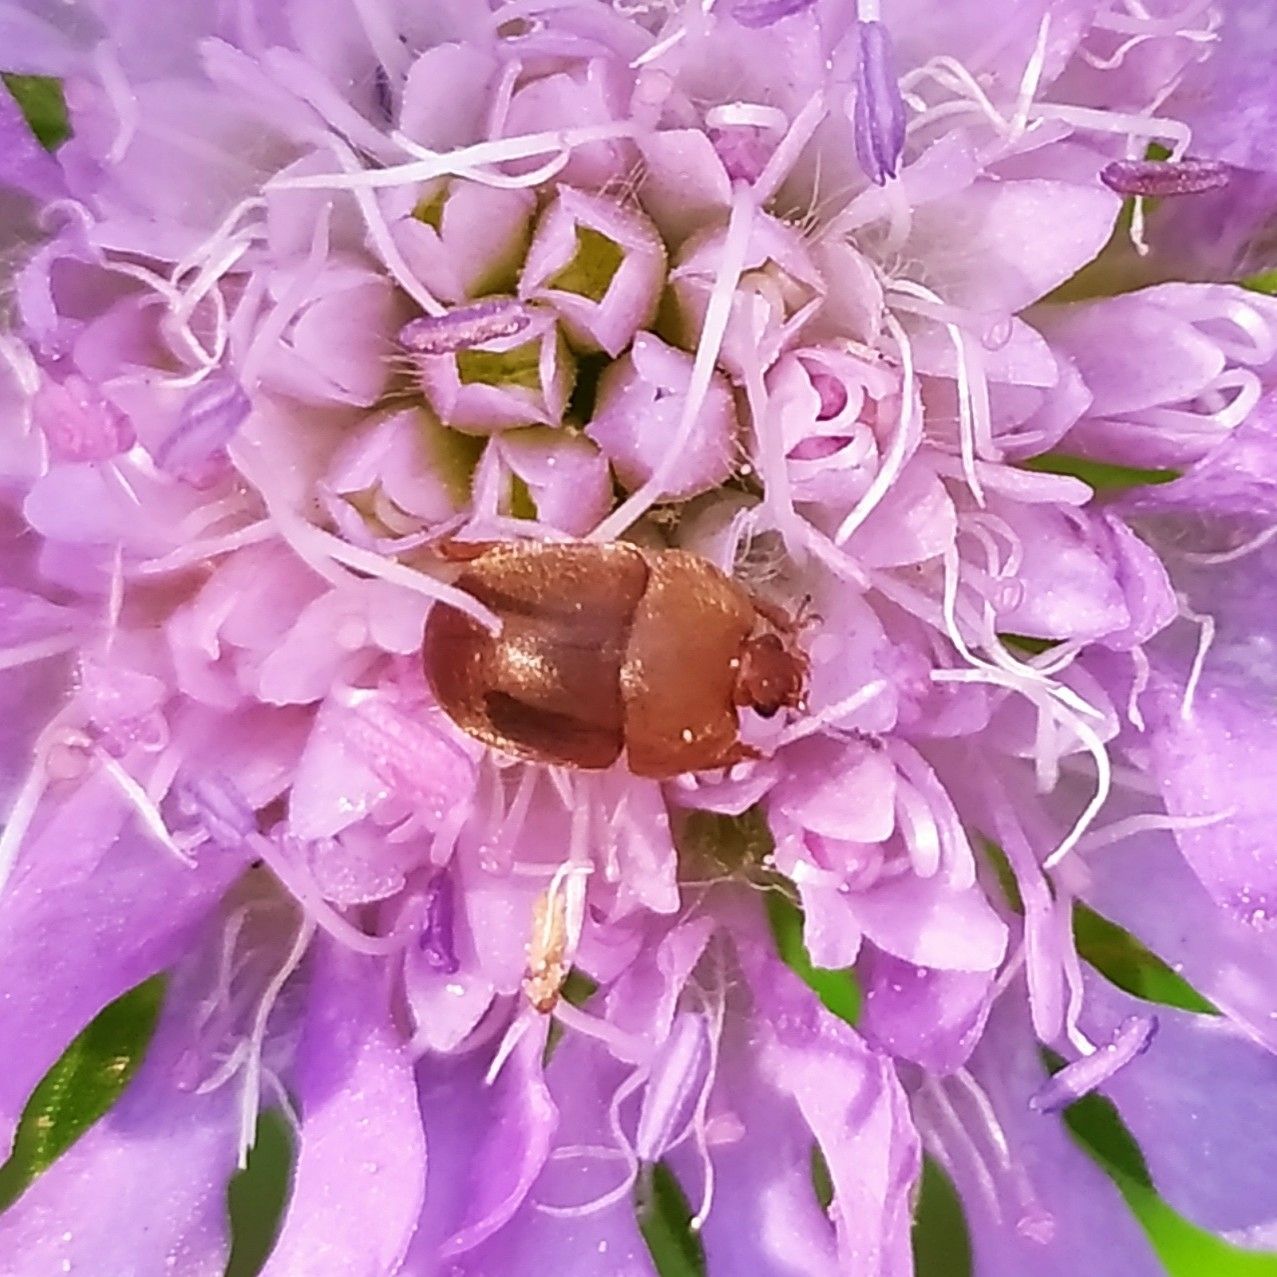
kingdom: Animalia
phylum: Arthropoda
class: Insecta
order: Coleoptera
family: Nitidulidae
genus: Cychramus
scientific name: Cychramus luteus
